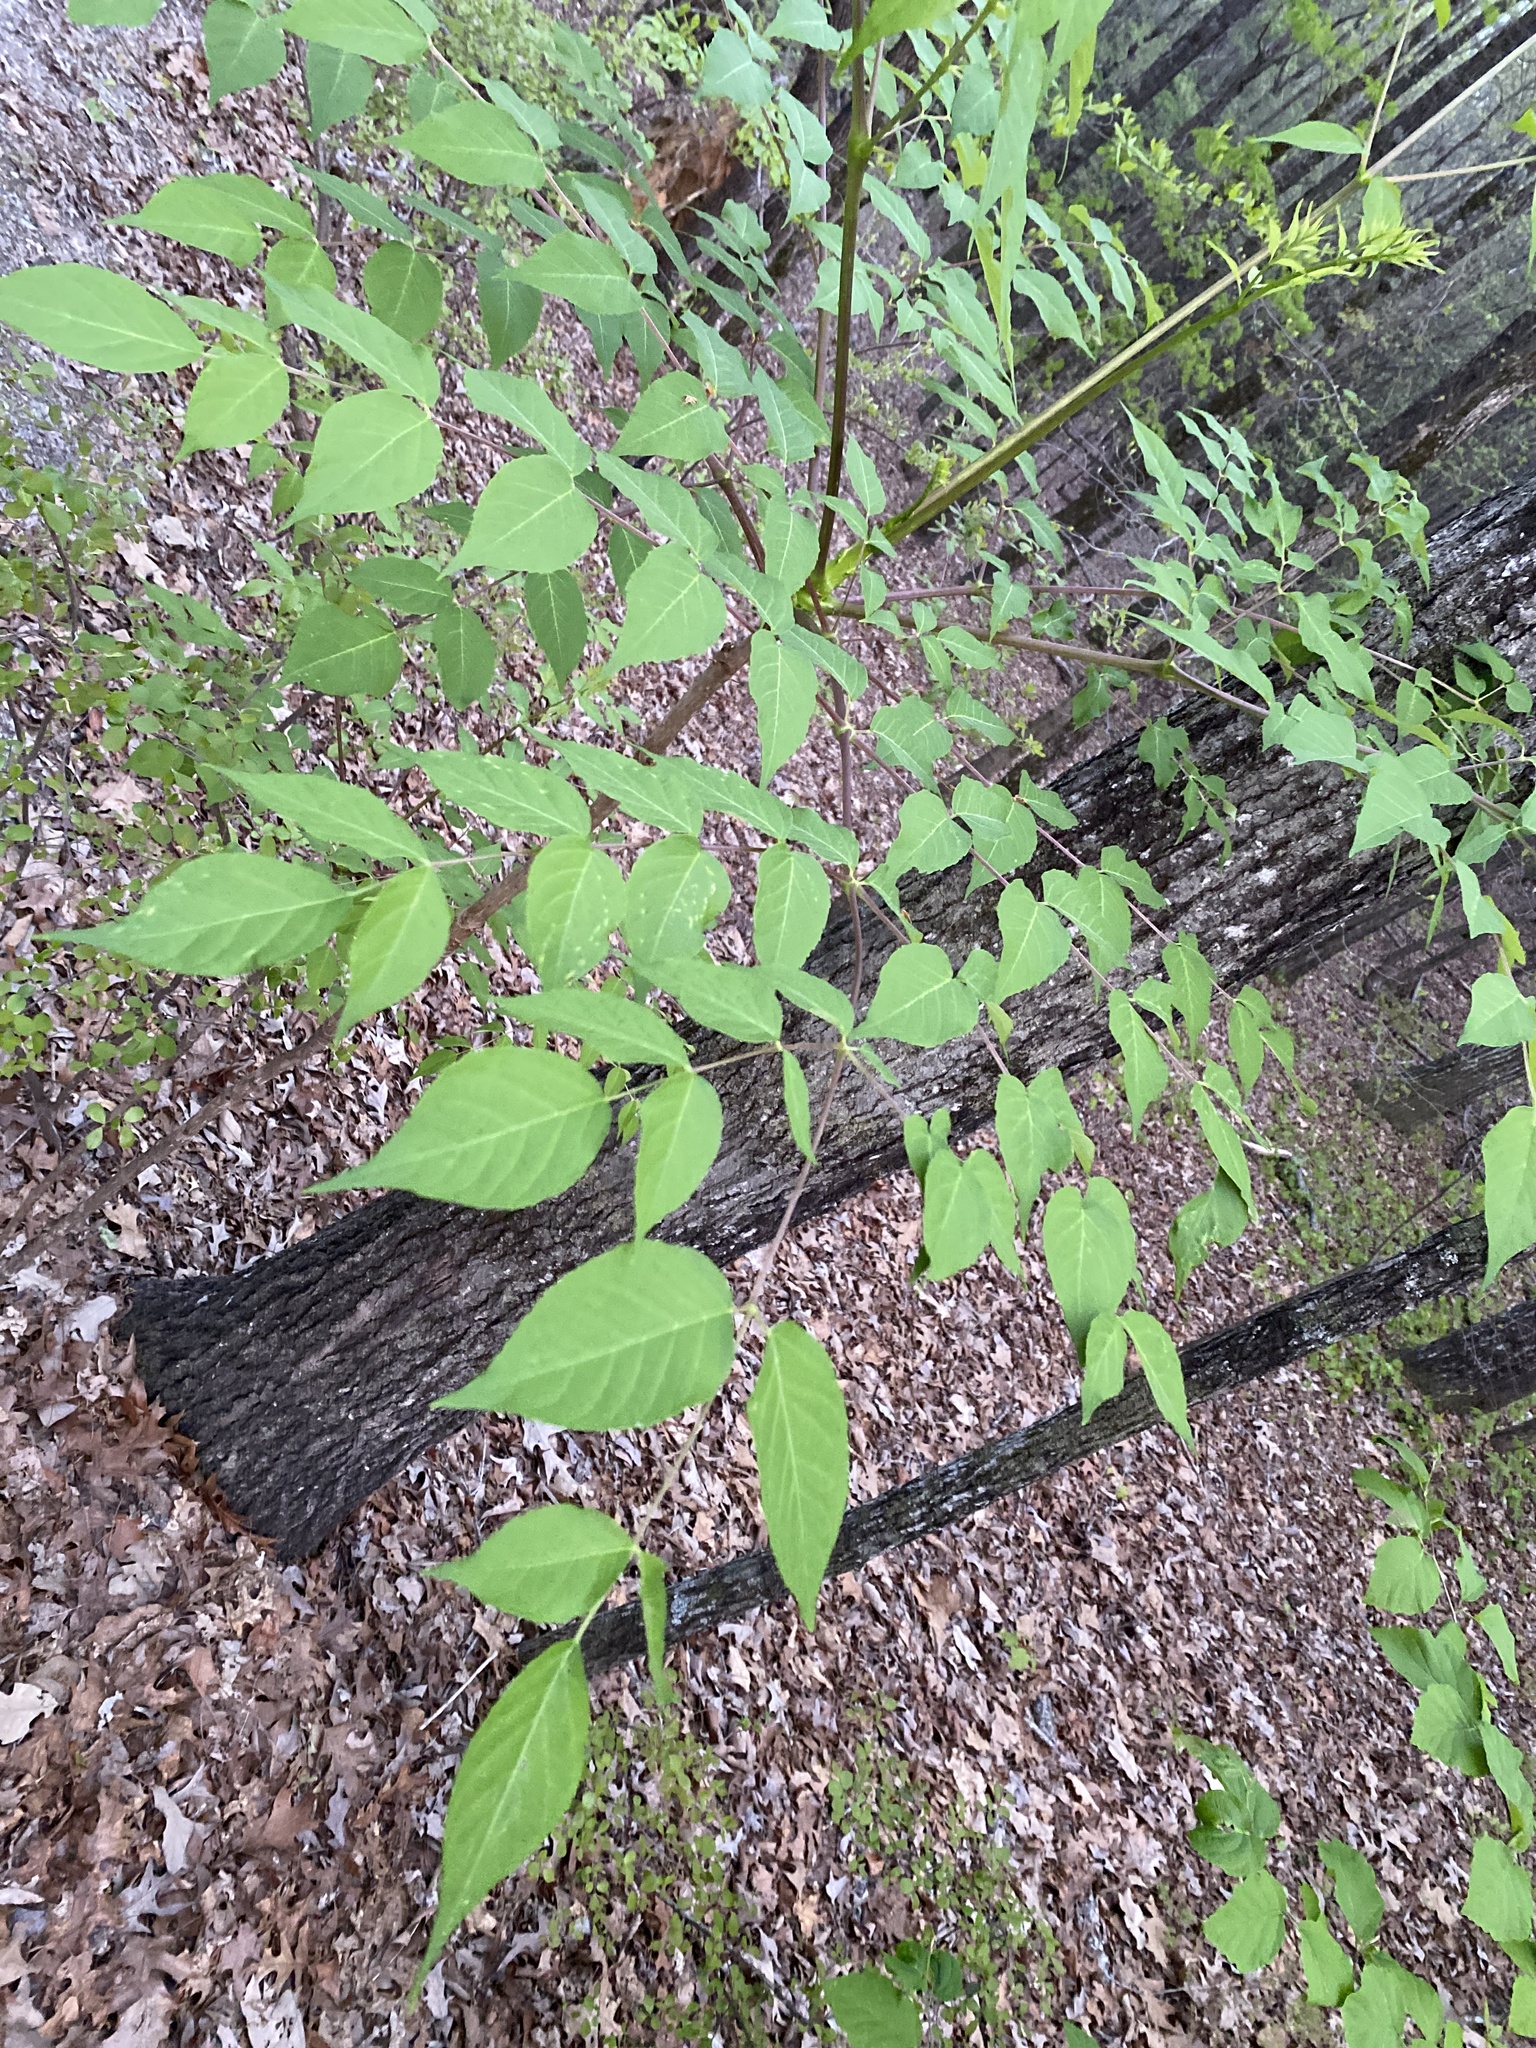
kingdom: Plantae
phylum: Tracheophyta
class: Magnoliopsida
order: Apiales
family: Araliaceae
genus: Aralia
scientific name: Aralia spinosa
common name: Hercules'-club
